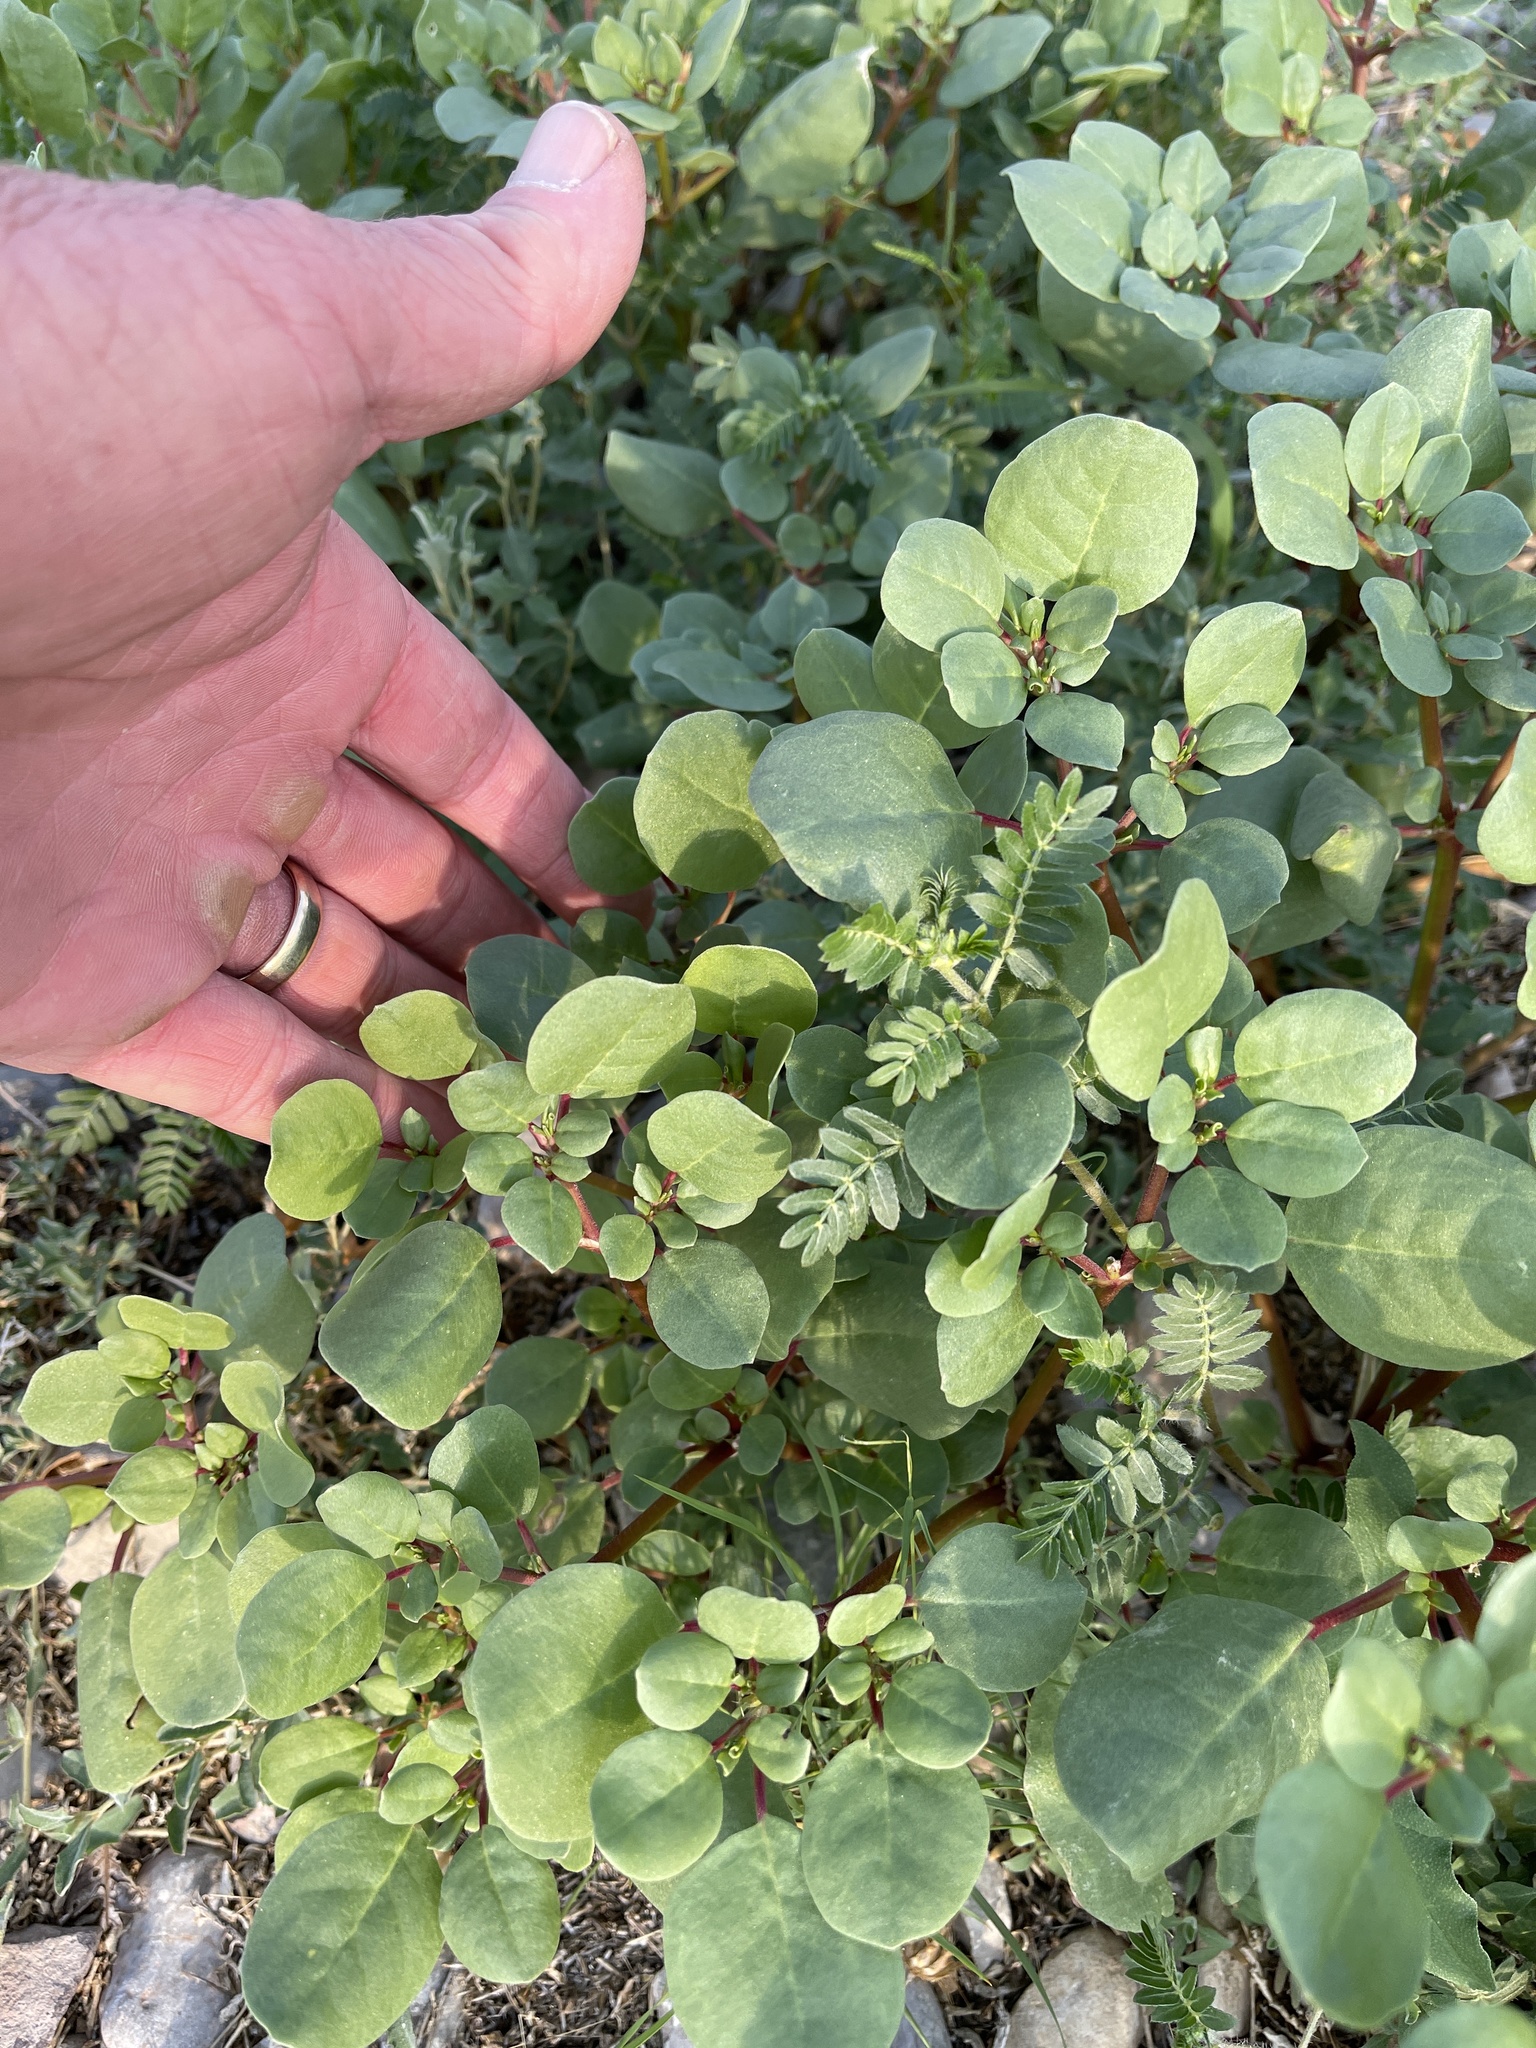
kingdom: Plantae
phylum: Tracheophyta
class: Magnoliopsida
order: Caryophyllales
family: Aizoaceae
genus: Trianthema
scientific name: Trianthema portulacastrum
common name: Desert horsepurslane
